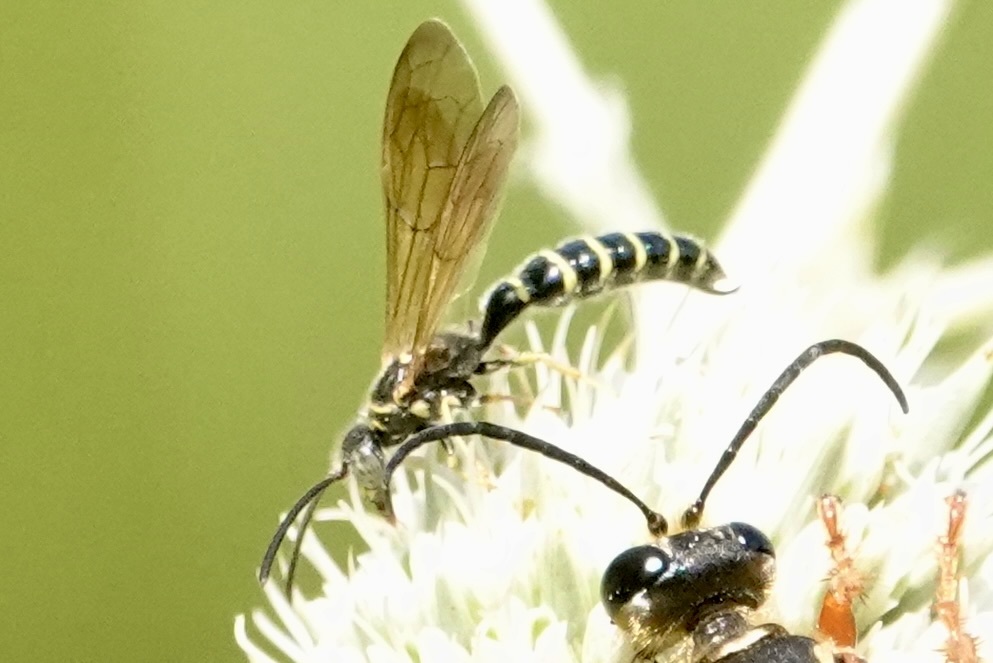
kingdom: Animalia
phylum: Arthropoda
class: Insecta
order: Hymenoptera
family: Tiphiidae
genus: Myzinum
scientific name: Myzinum
